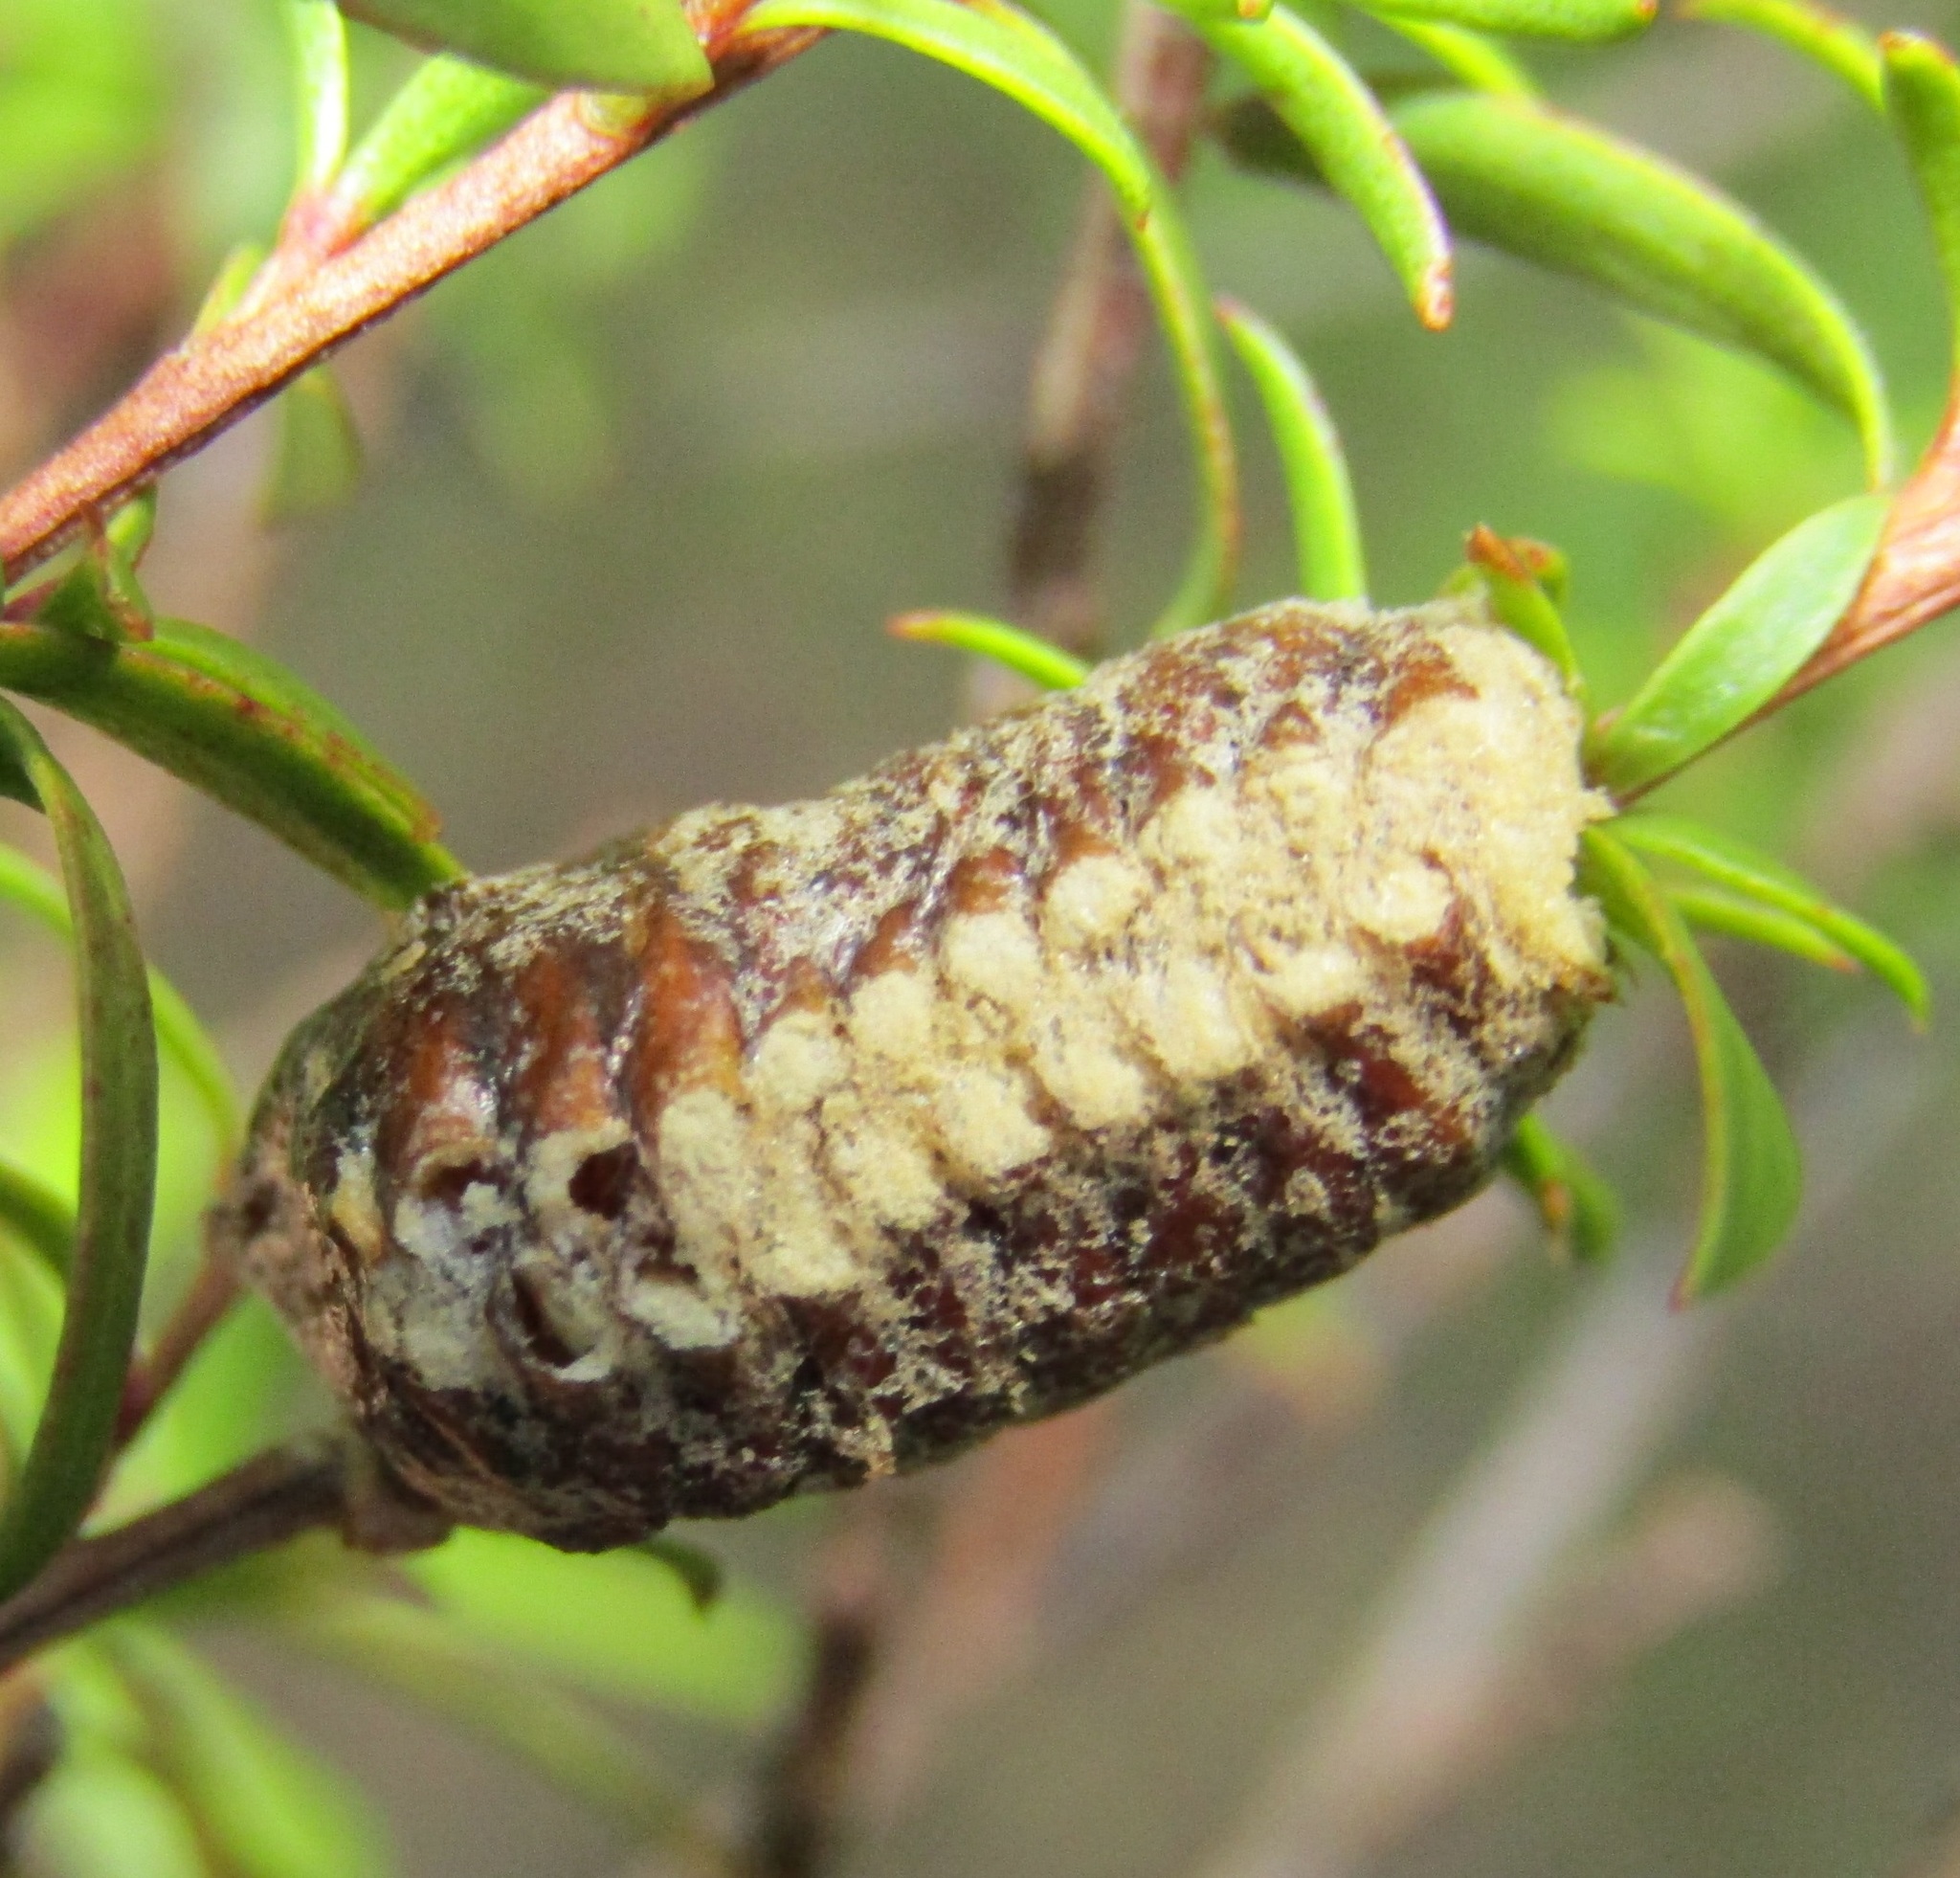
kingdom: Animalia
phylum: Arthropoda
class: Insecta
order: Mantodea
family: Mantidae
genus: Orthodera
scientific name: Orthodera novaezealandiae
